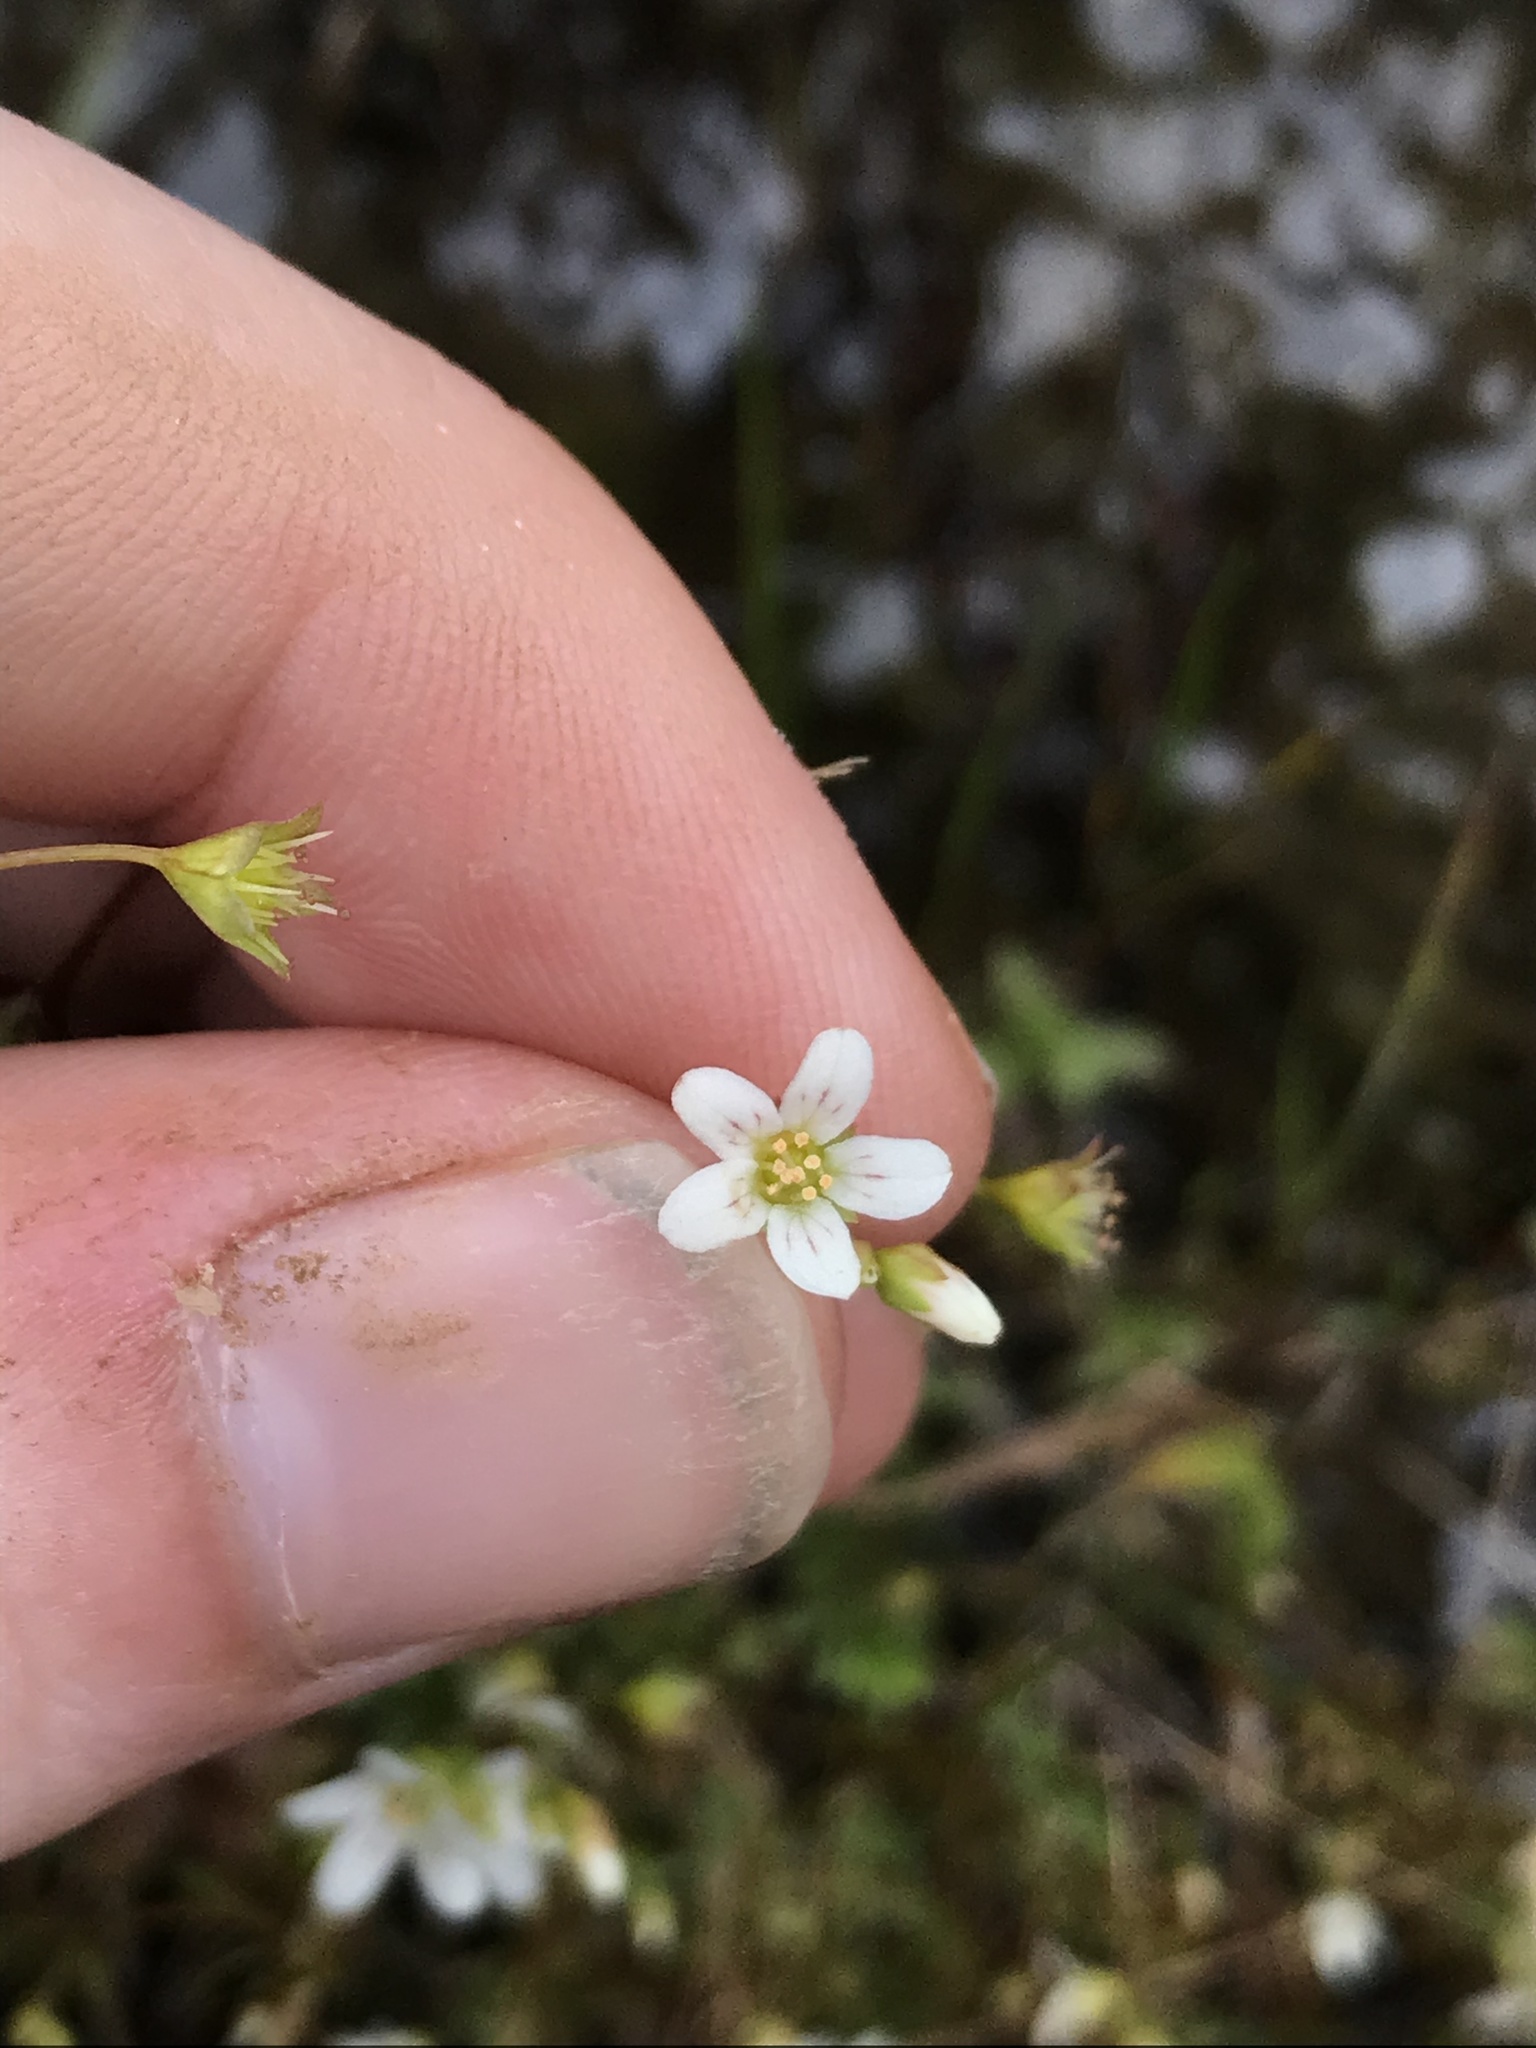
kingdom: Plantae
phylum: Tracheophyta
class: Magnoliopsida
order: Saxifragales
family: Saxifragaceae
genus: Cascadia
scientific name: Cascadia nuttallii
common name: Nuttall's saxifrage
